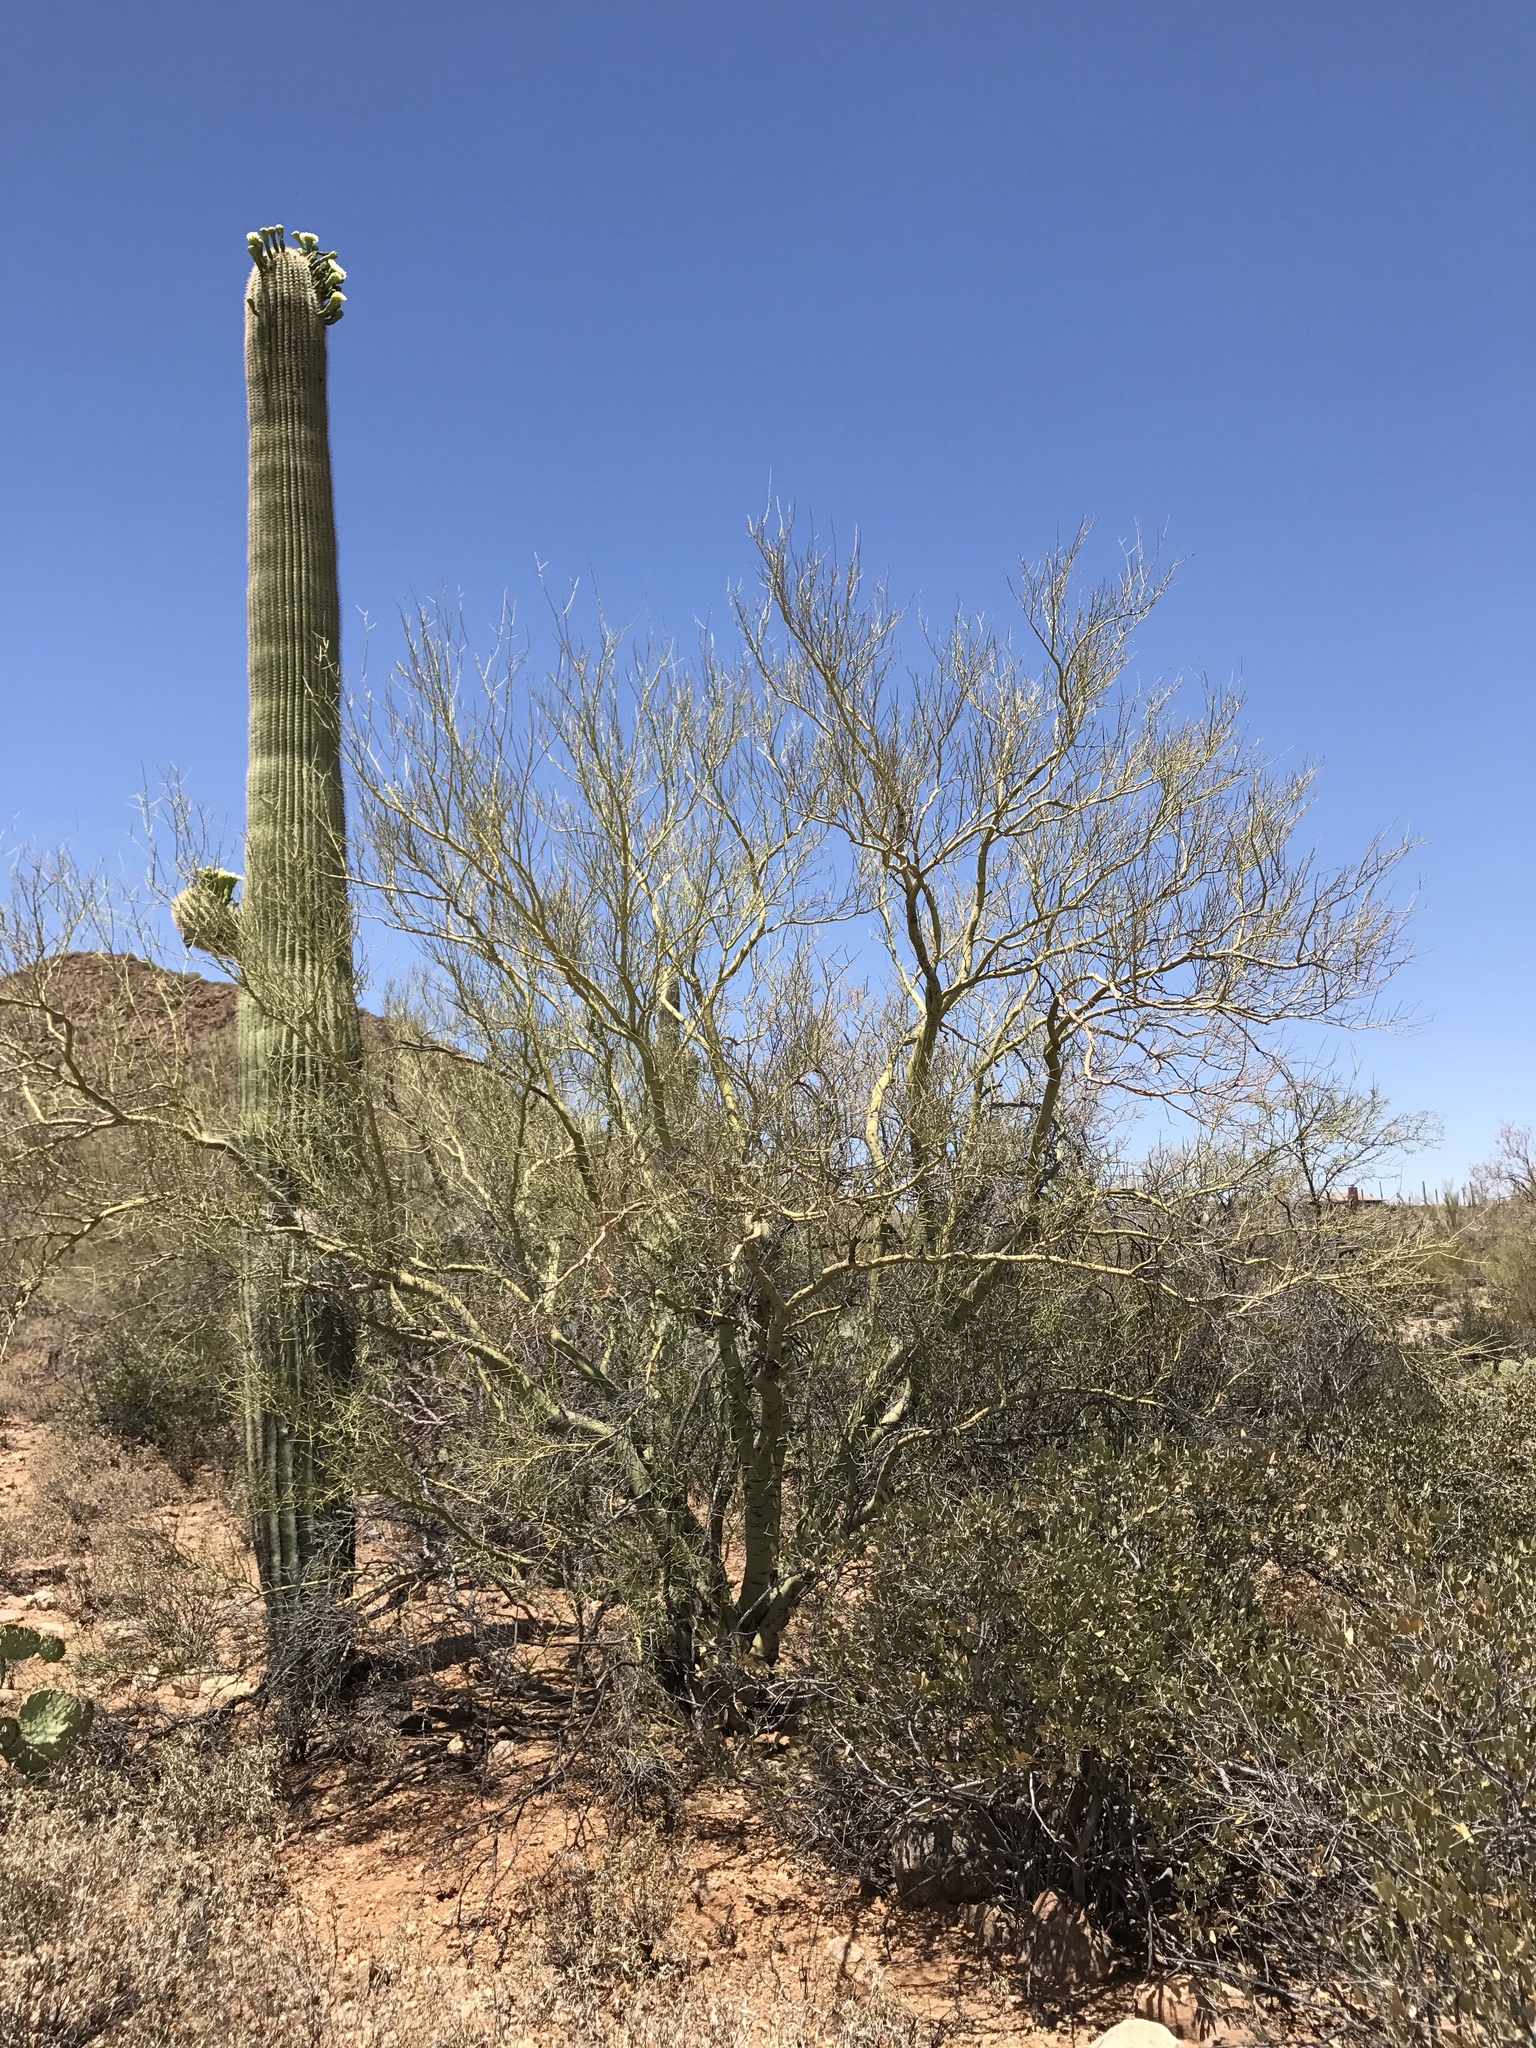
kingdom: Plantae
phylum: Tracheophyta
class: Magnoliopsida
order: Caryophyllales
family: Cactaceae
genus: Carnegiea
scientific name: Carnegiea gigantea
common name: Saguaro
